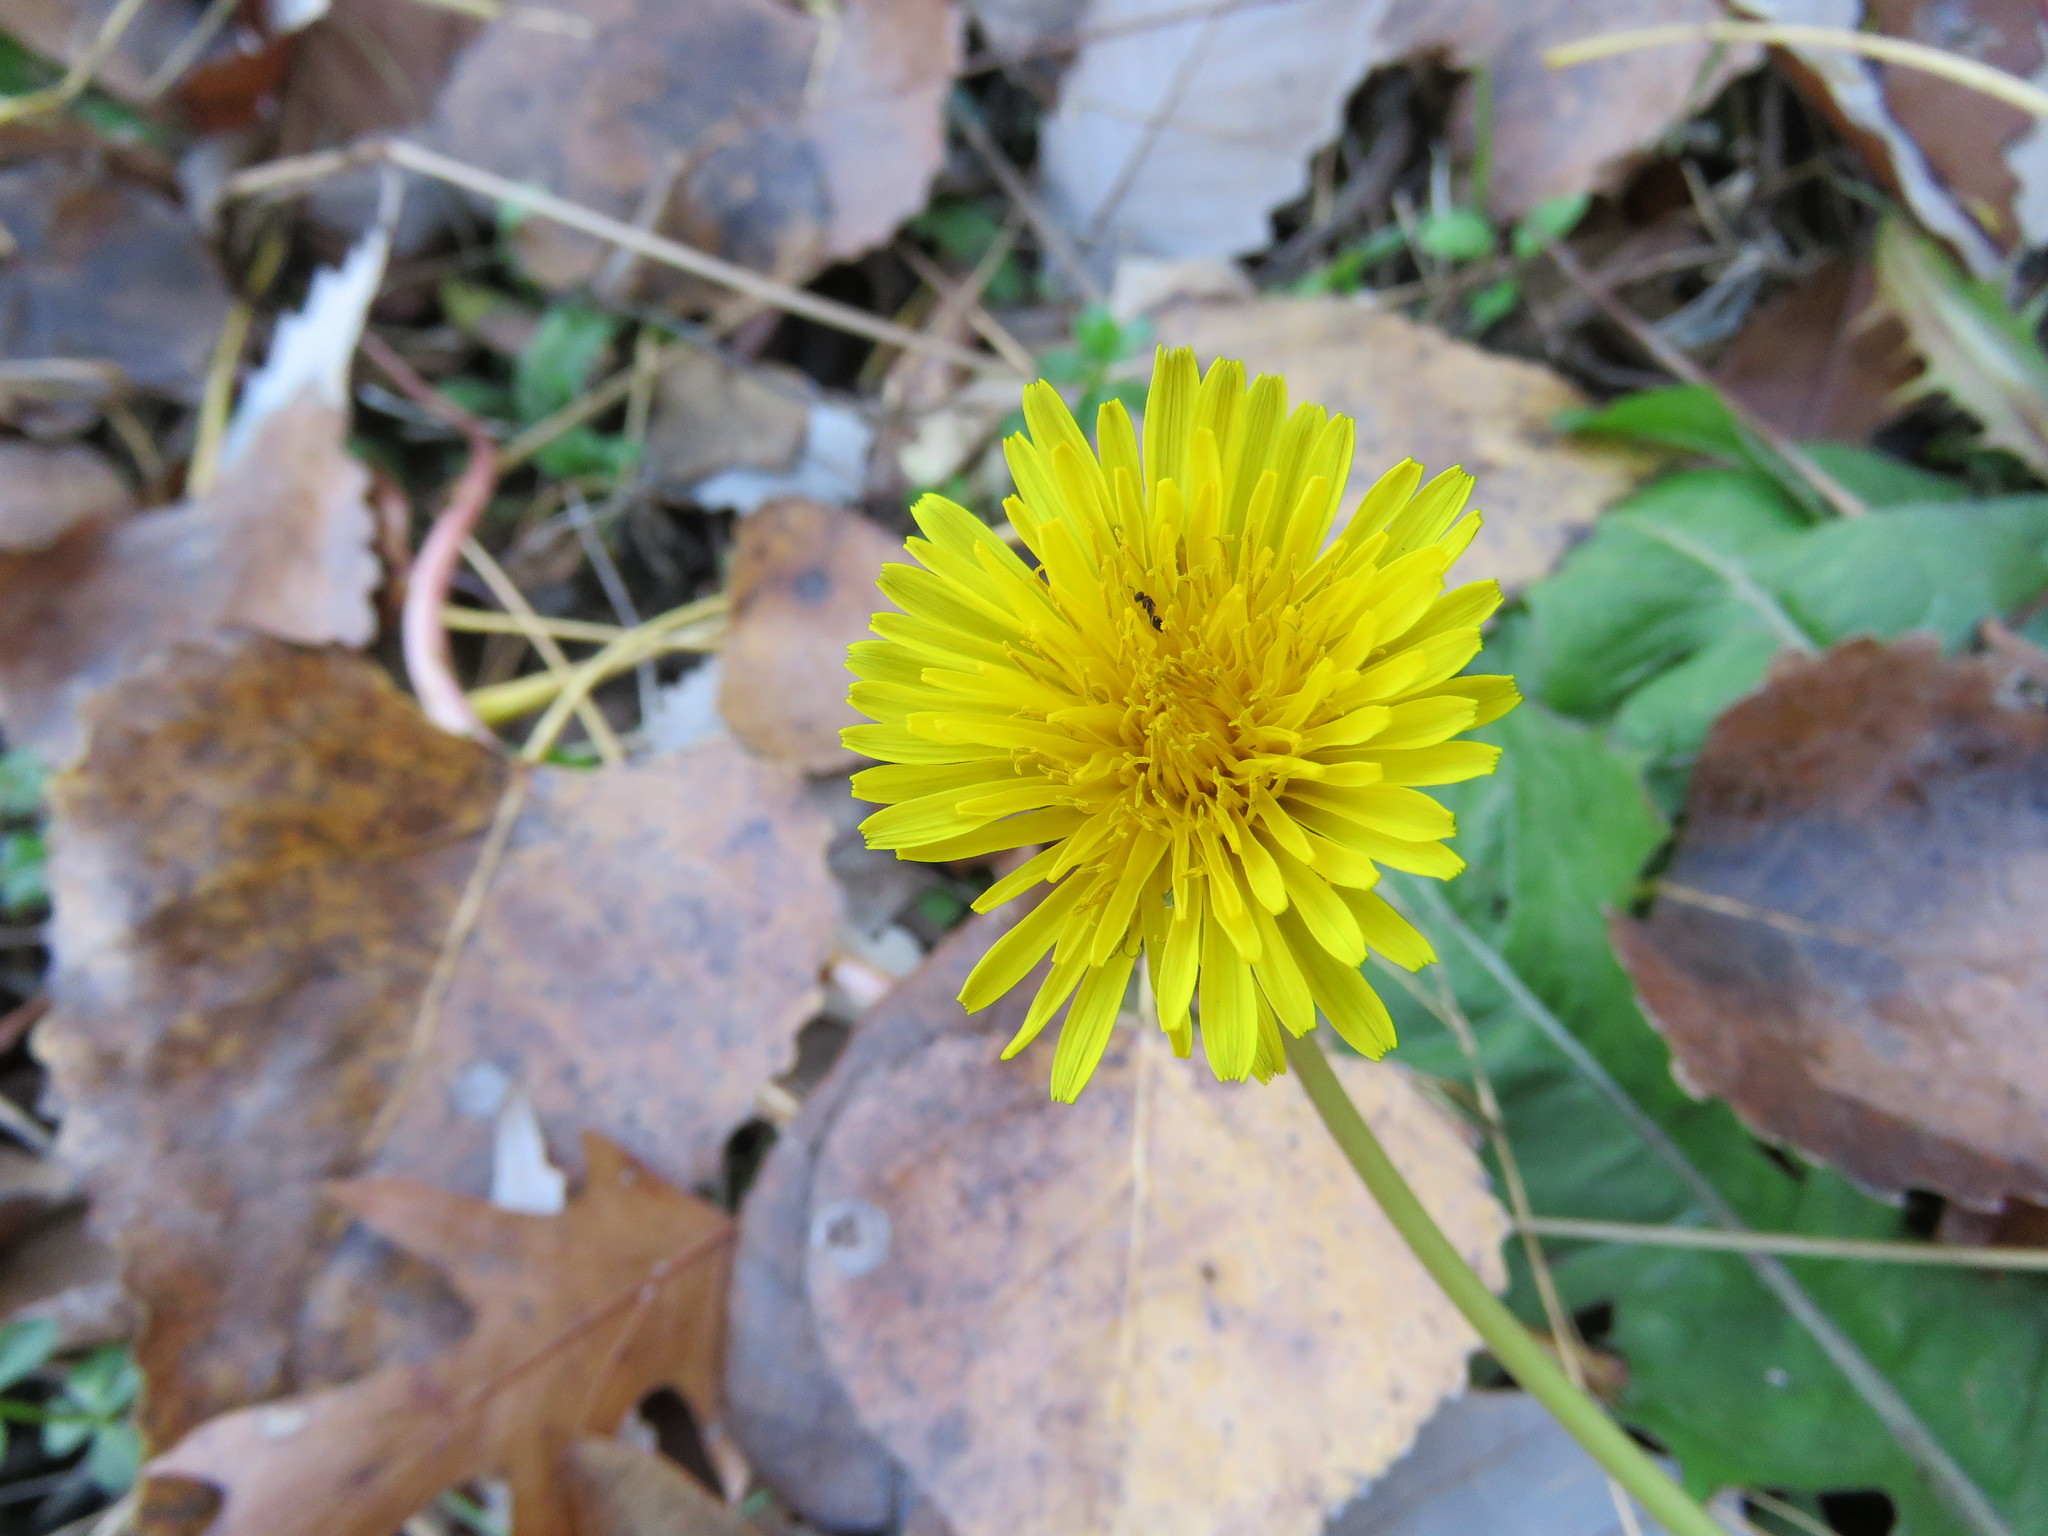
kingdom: Plantae
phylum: Tracheophyta
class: Magnoliopsida
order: Asterales
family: Asteraceae
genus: Taraxacum
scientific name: Taraxacum officinale
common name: Common dandelion
